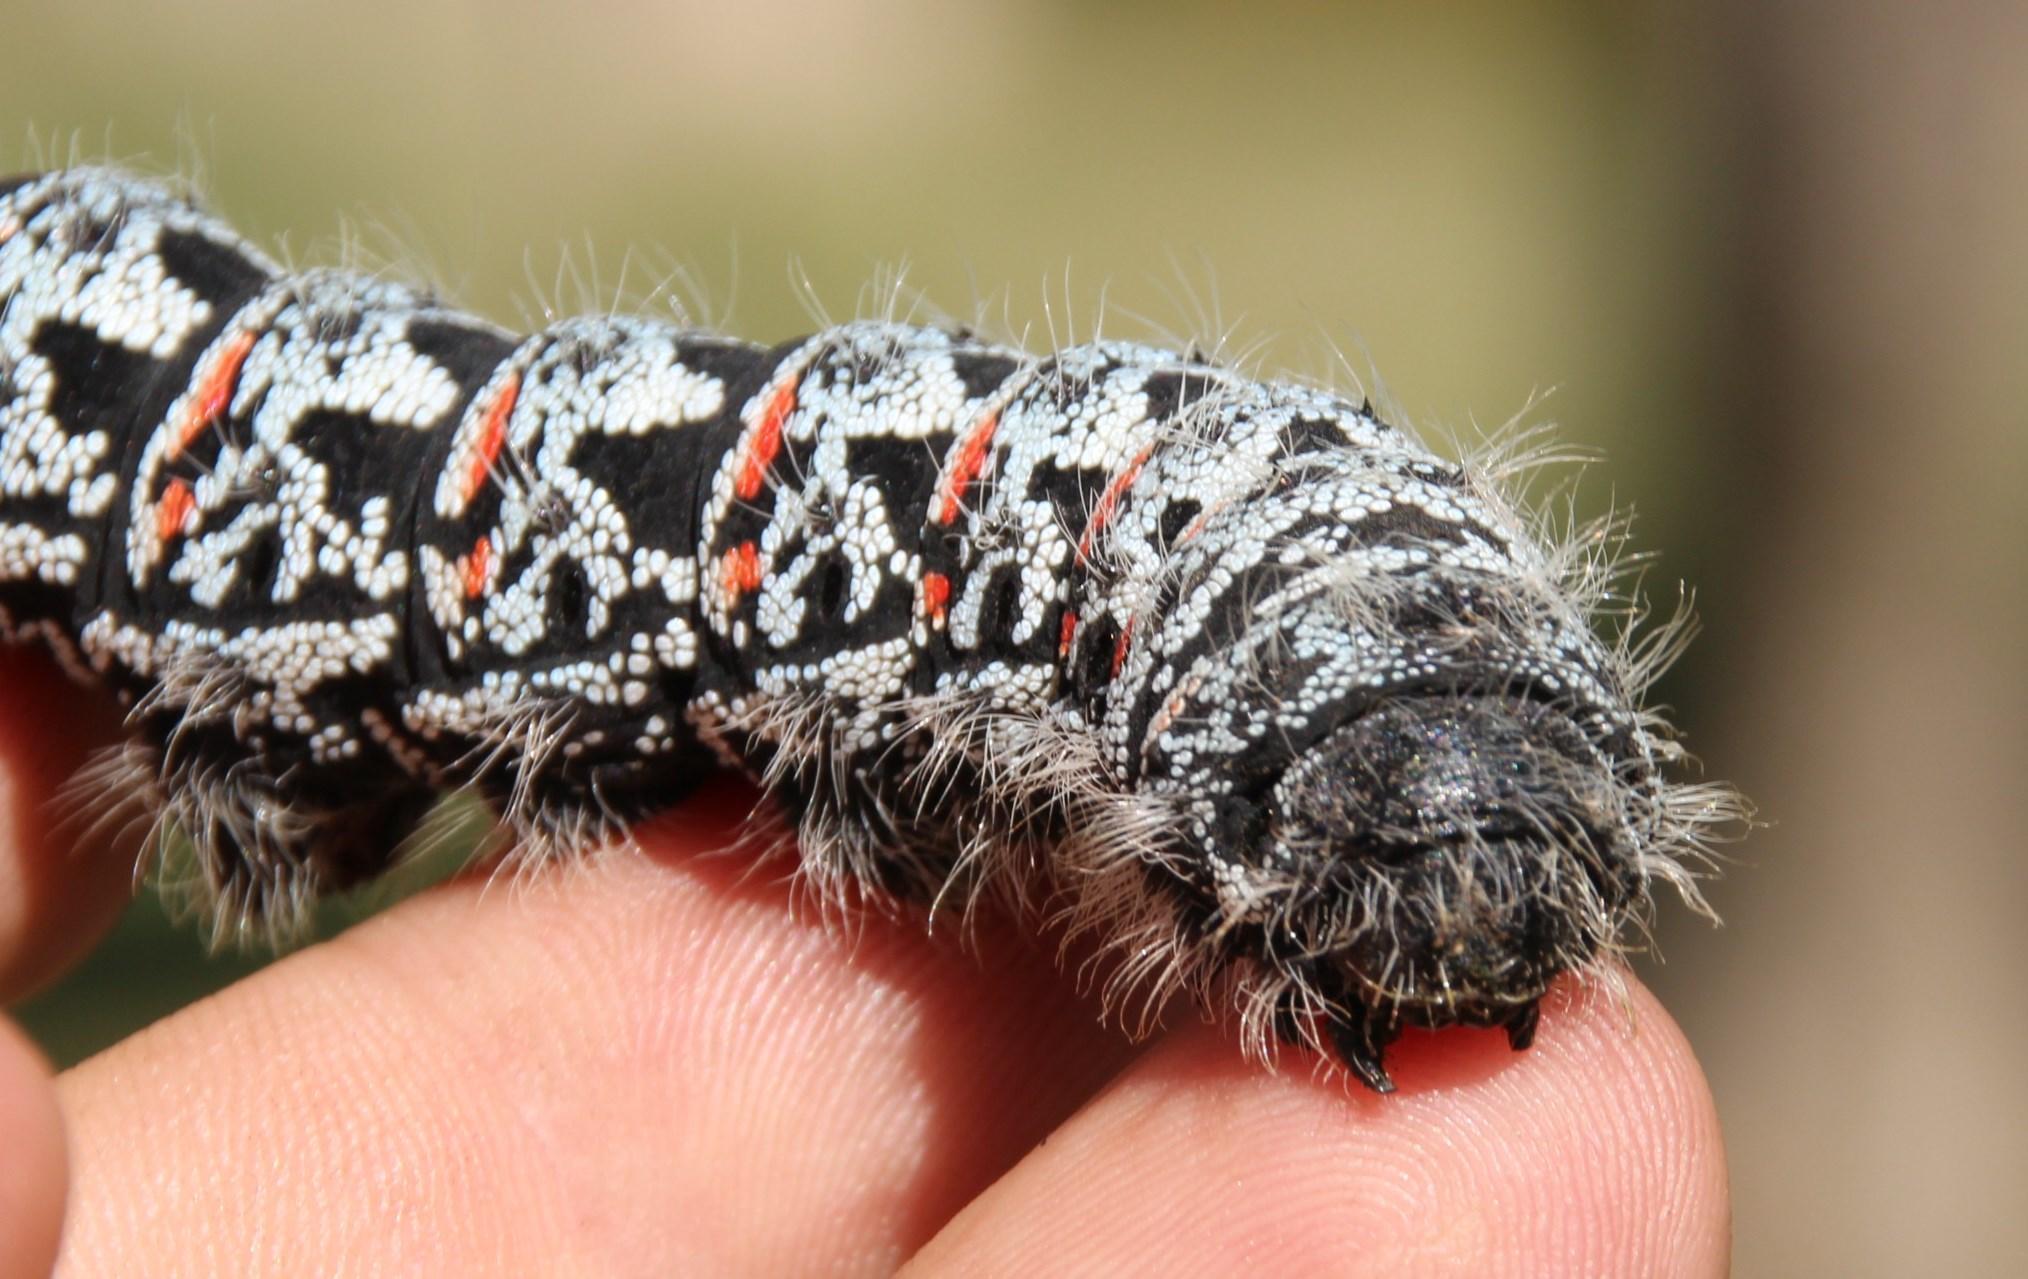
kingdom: Animalia
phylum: Arthropoda
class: Insecta
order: Lepidoptera
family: Saturniidae
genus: Gonimbrasia
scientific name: Gonimbrasia tyrrhea
